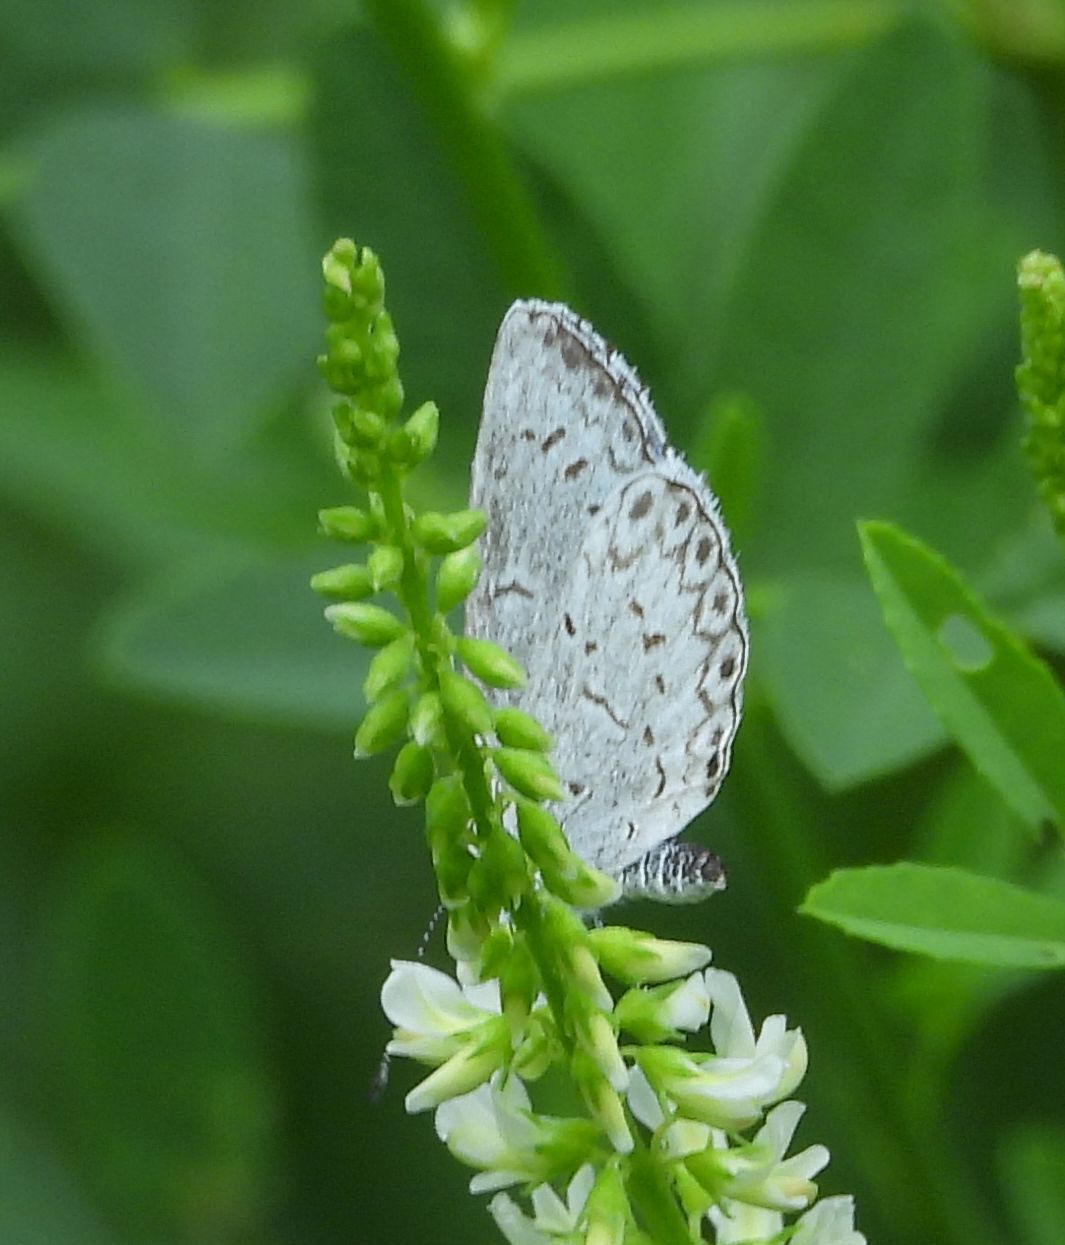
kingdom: Animalia
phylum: Arthropoda
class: Insecta
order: Lepidoptera
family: Lycaenidae
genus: Celastrina
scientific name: Celastrina lucia
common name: Lucia azure
